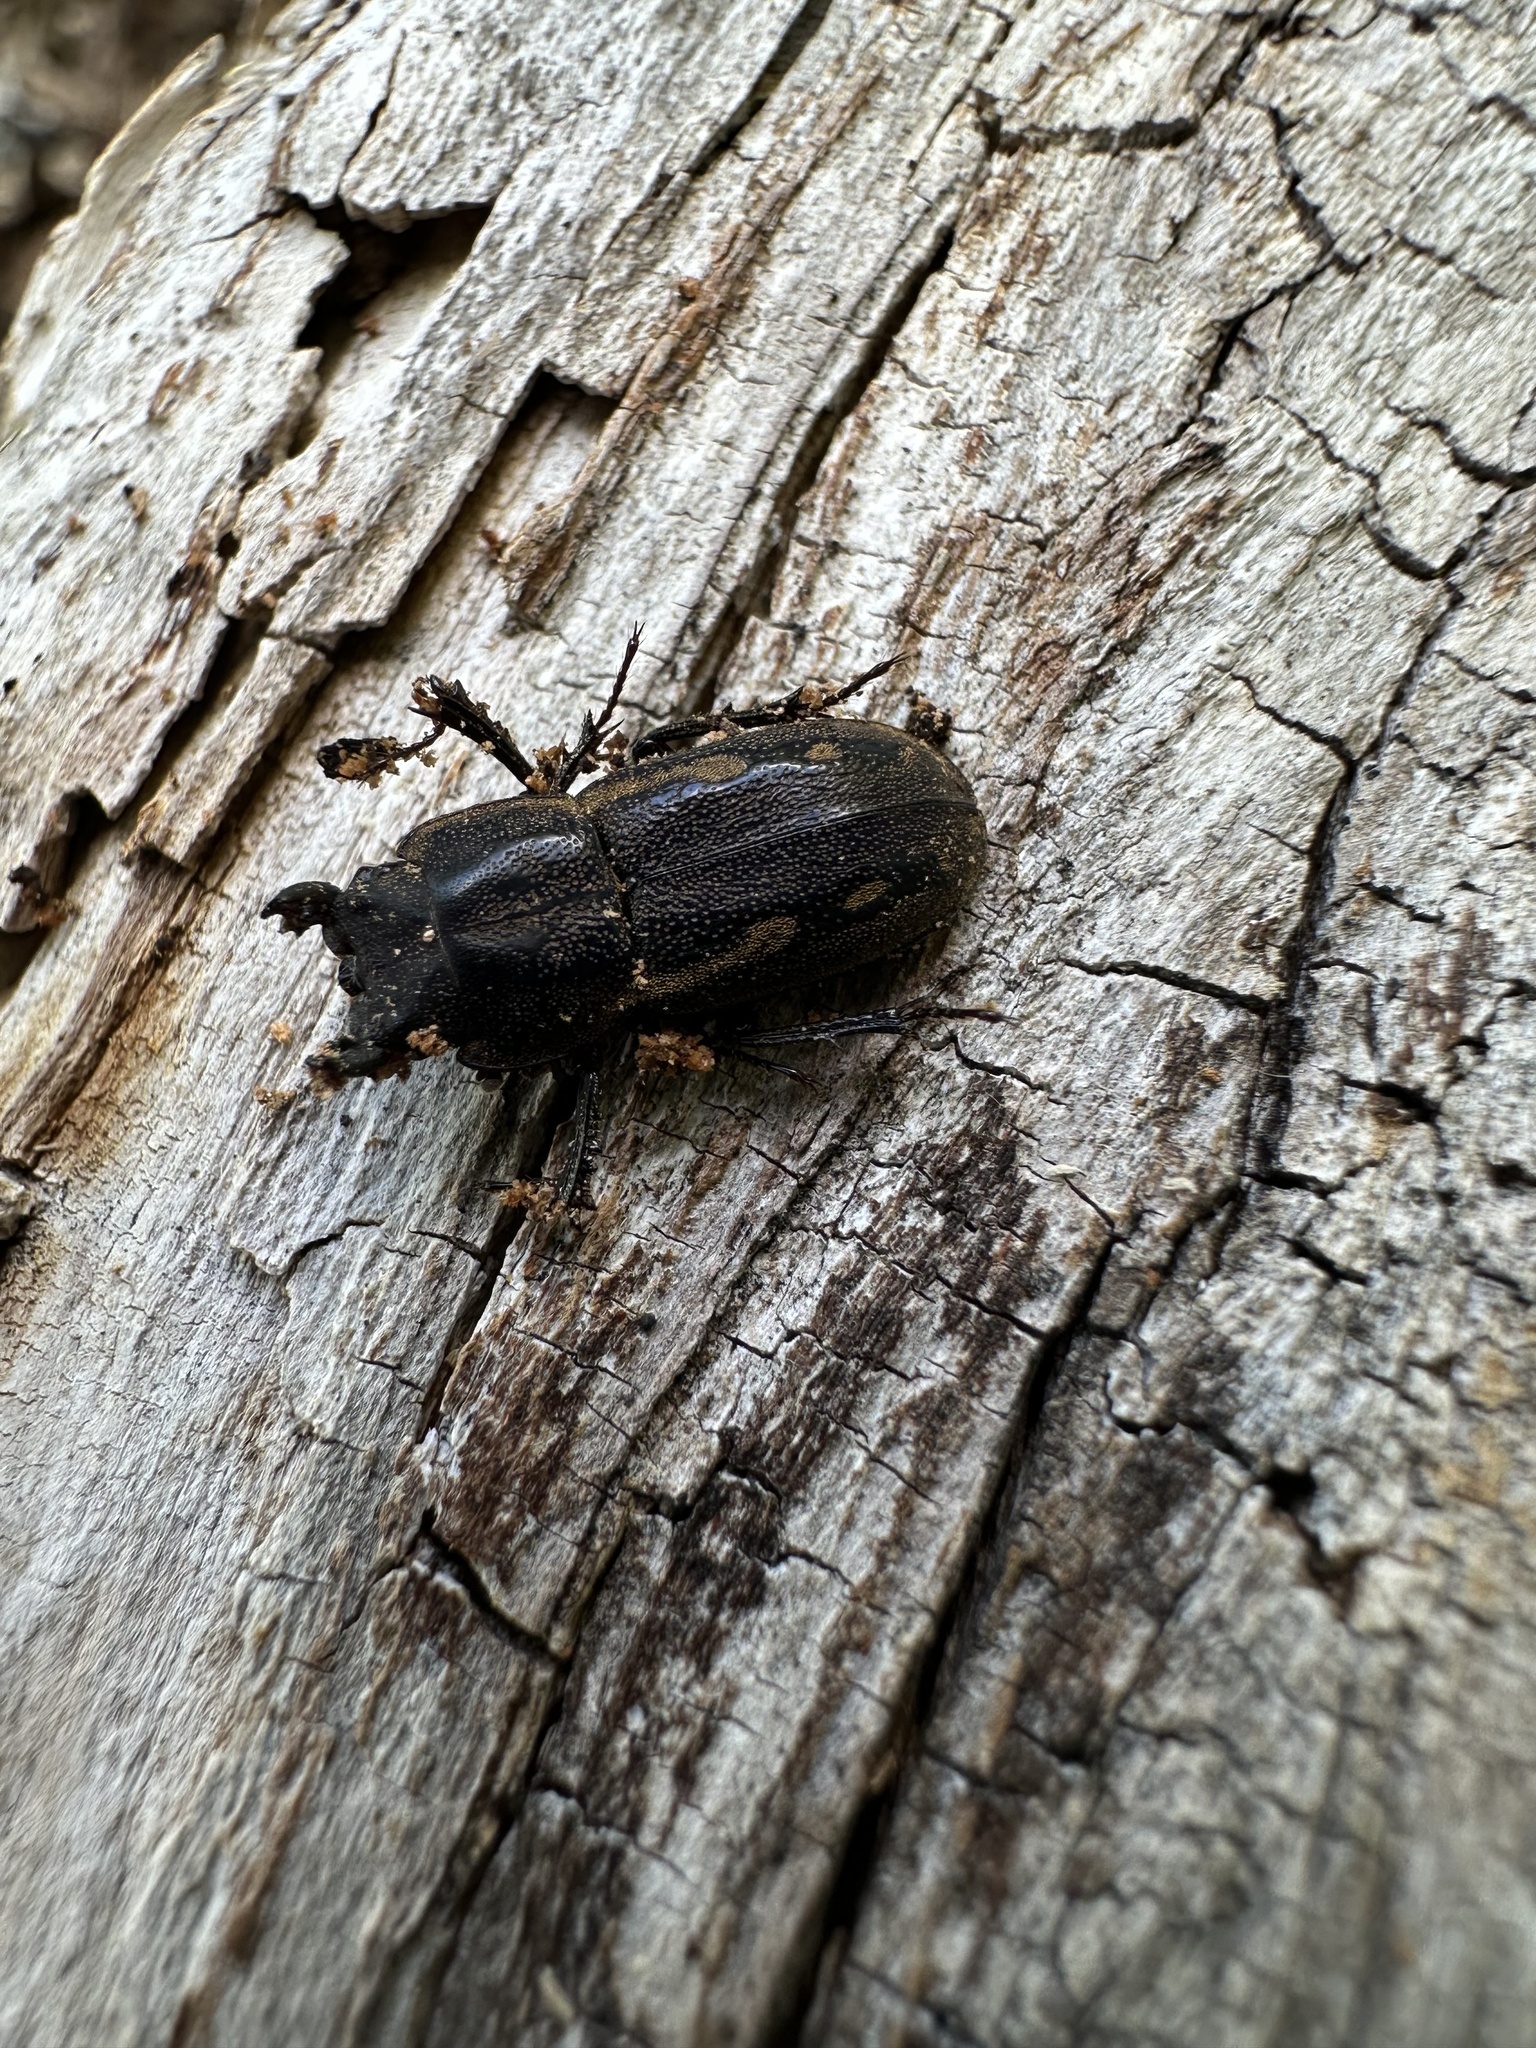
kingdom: Animalia
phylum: Arthropoda
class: Insecta
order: Coleoptera
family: Lucanidae
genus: Erichius
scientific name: Erichius calverti
